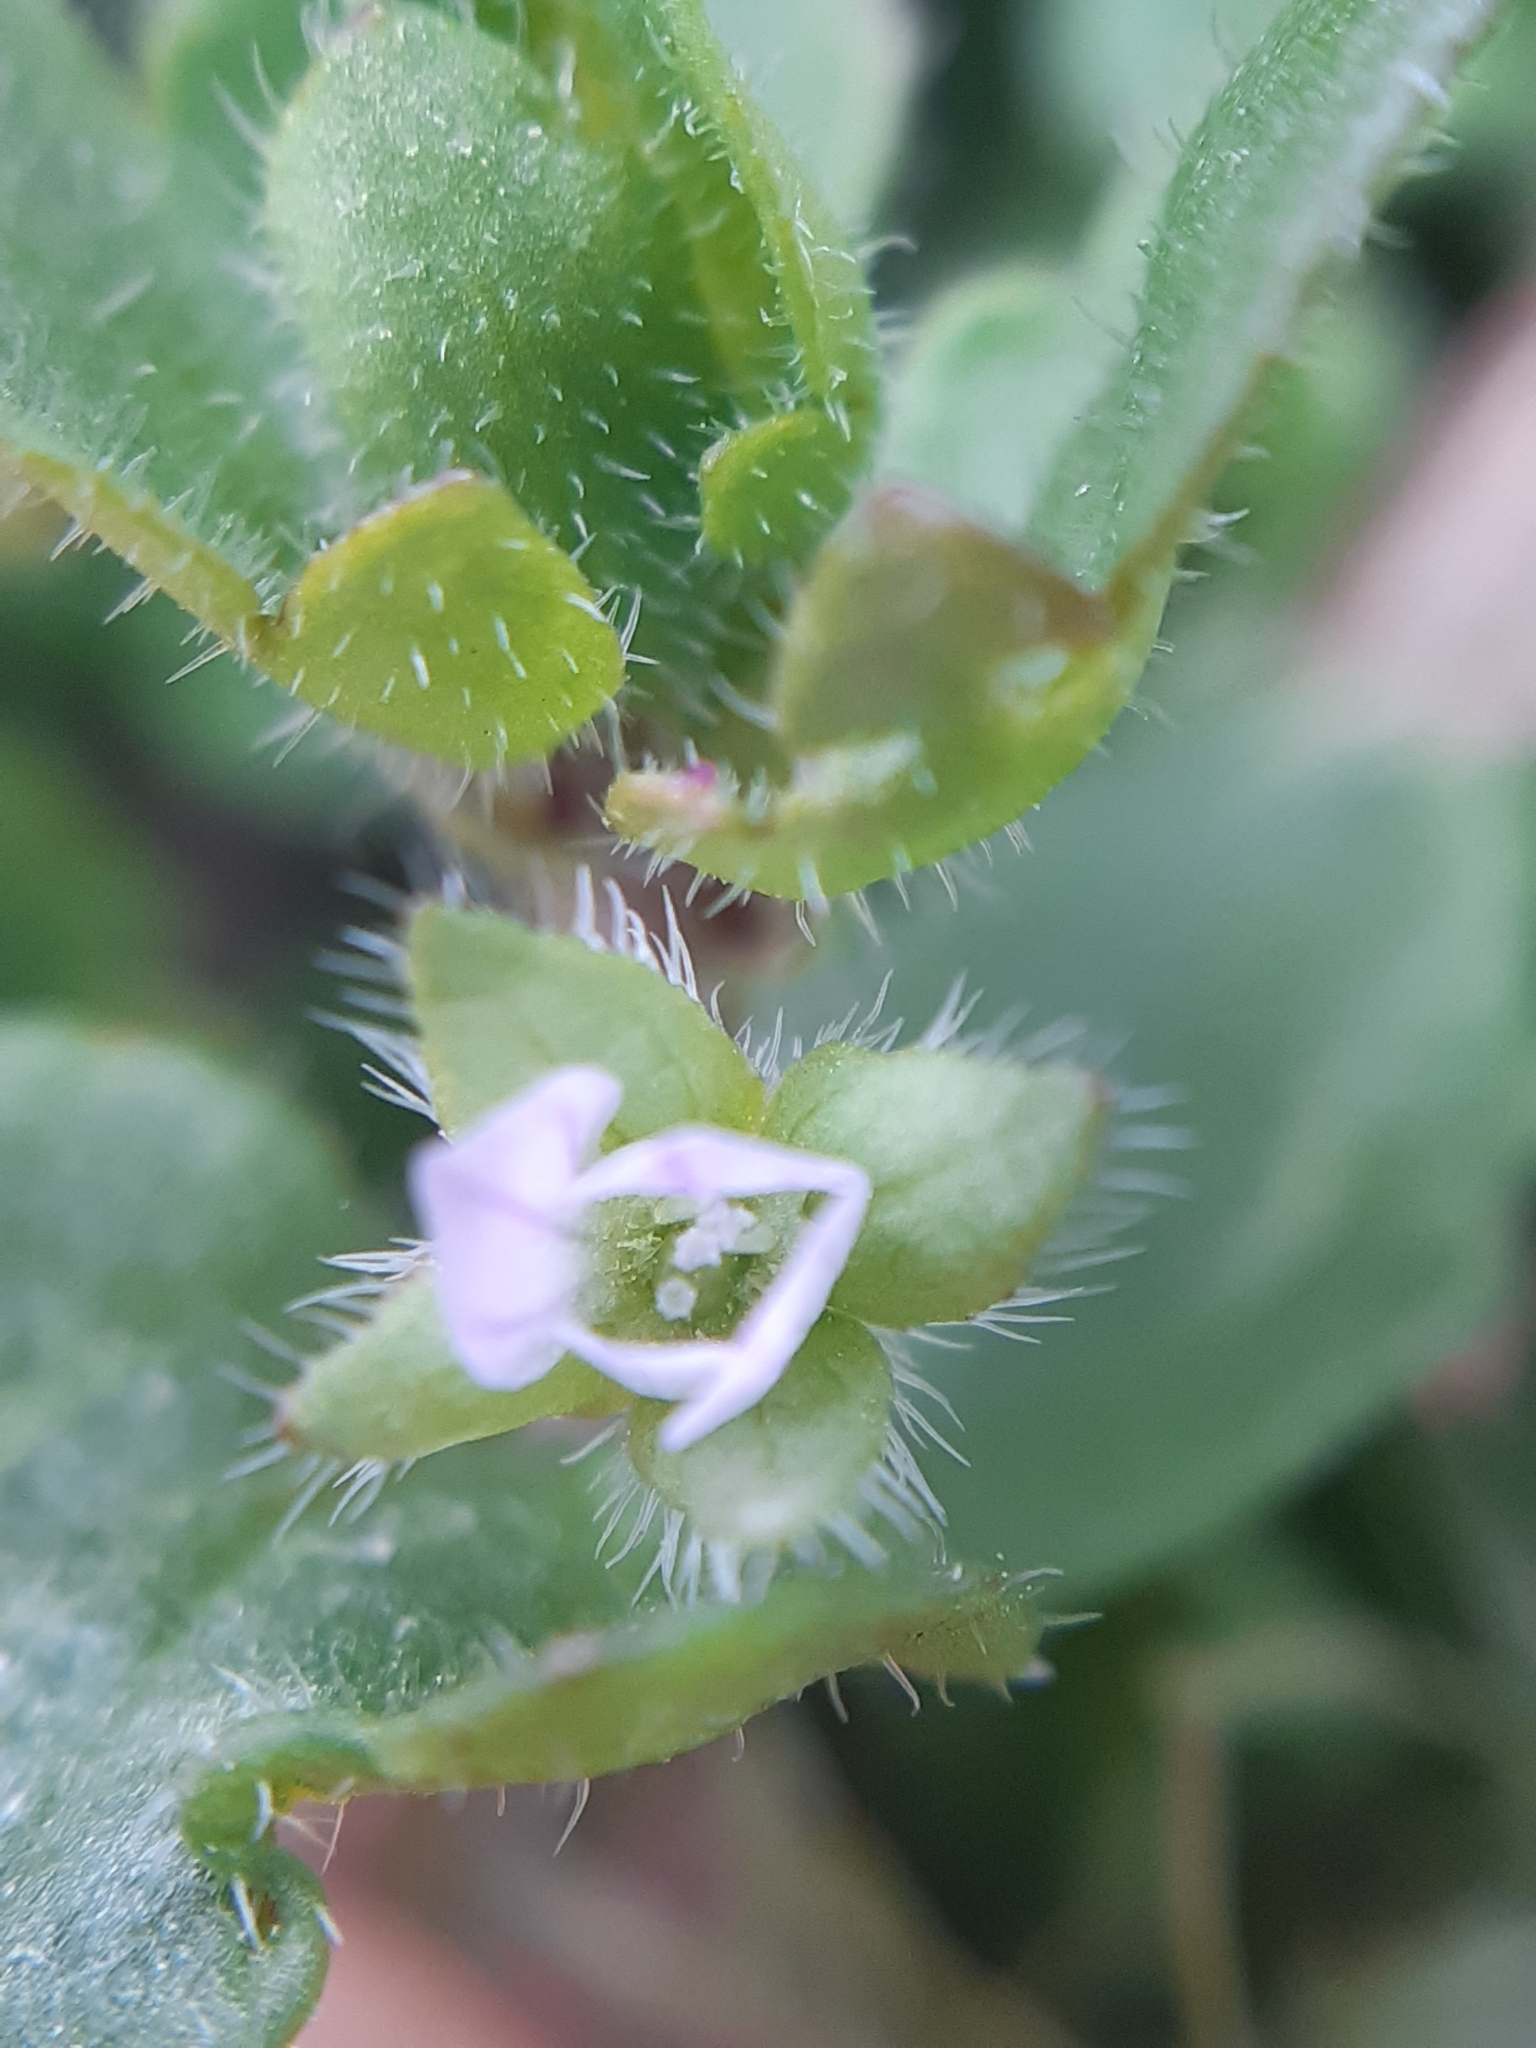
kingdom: Plantae
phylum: Tracheophyta
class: Magnoliopsida
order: Lamiales
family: Plantaginaceae
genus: Veronica
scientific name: Veronica sublobata
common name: False ivy-leaved speedwell
